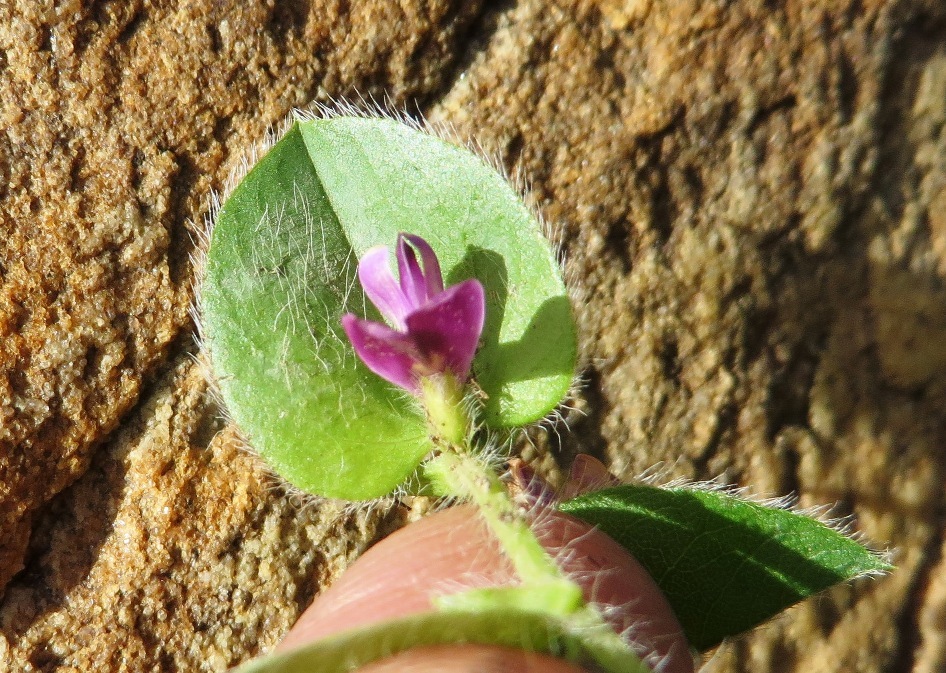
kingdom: Plantae
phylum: Tracheophyta
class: Magnoliopsida
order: Fabales
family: Fabaceae
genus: Psoralea
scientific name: Psoralea imbricata
